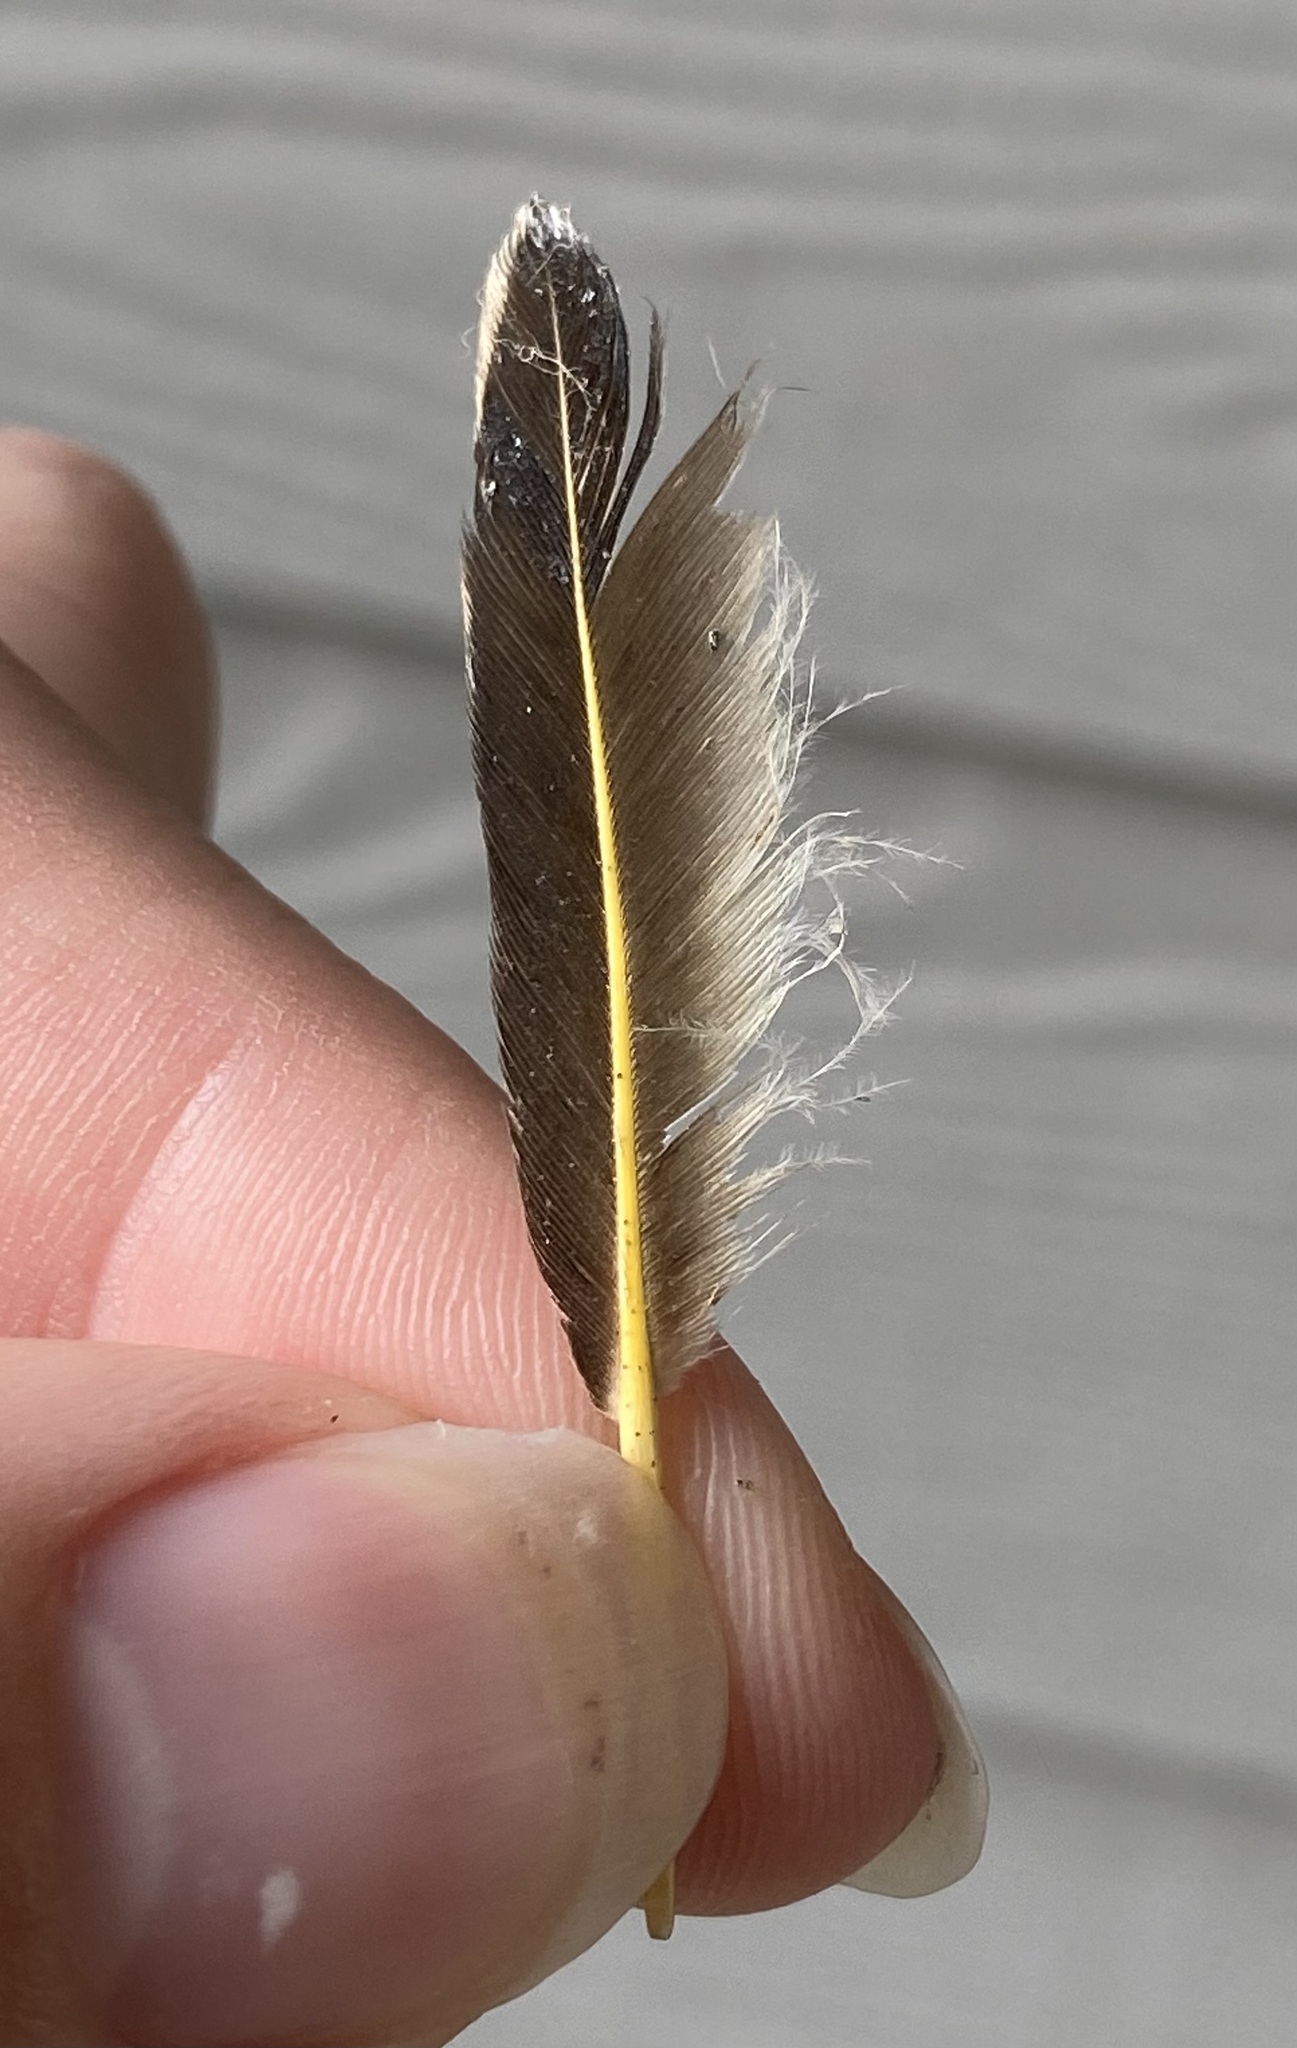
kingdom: Animalia
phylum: Chordata
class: Aves
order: Piciformes
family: Picidae
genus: Colaptes
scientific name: Colaptes auratus
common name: Northern flicker
